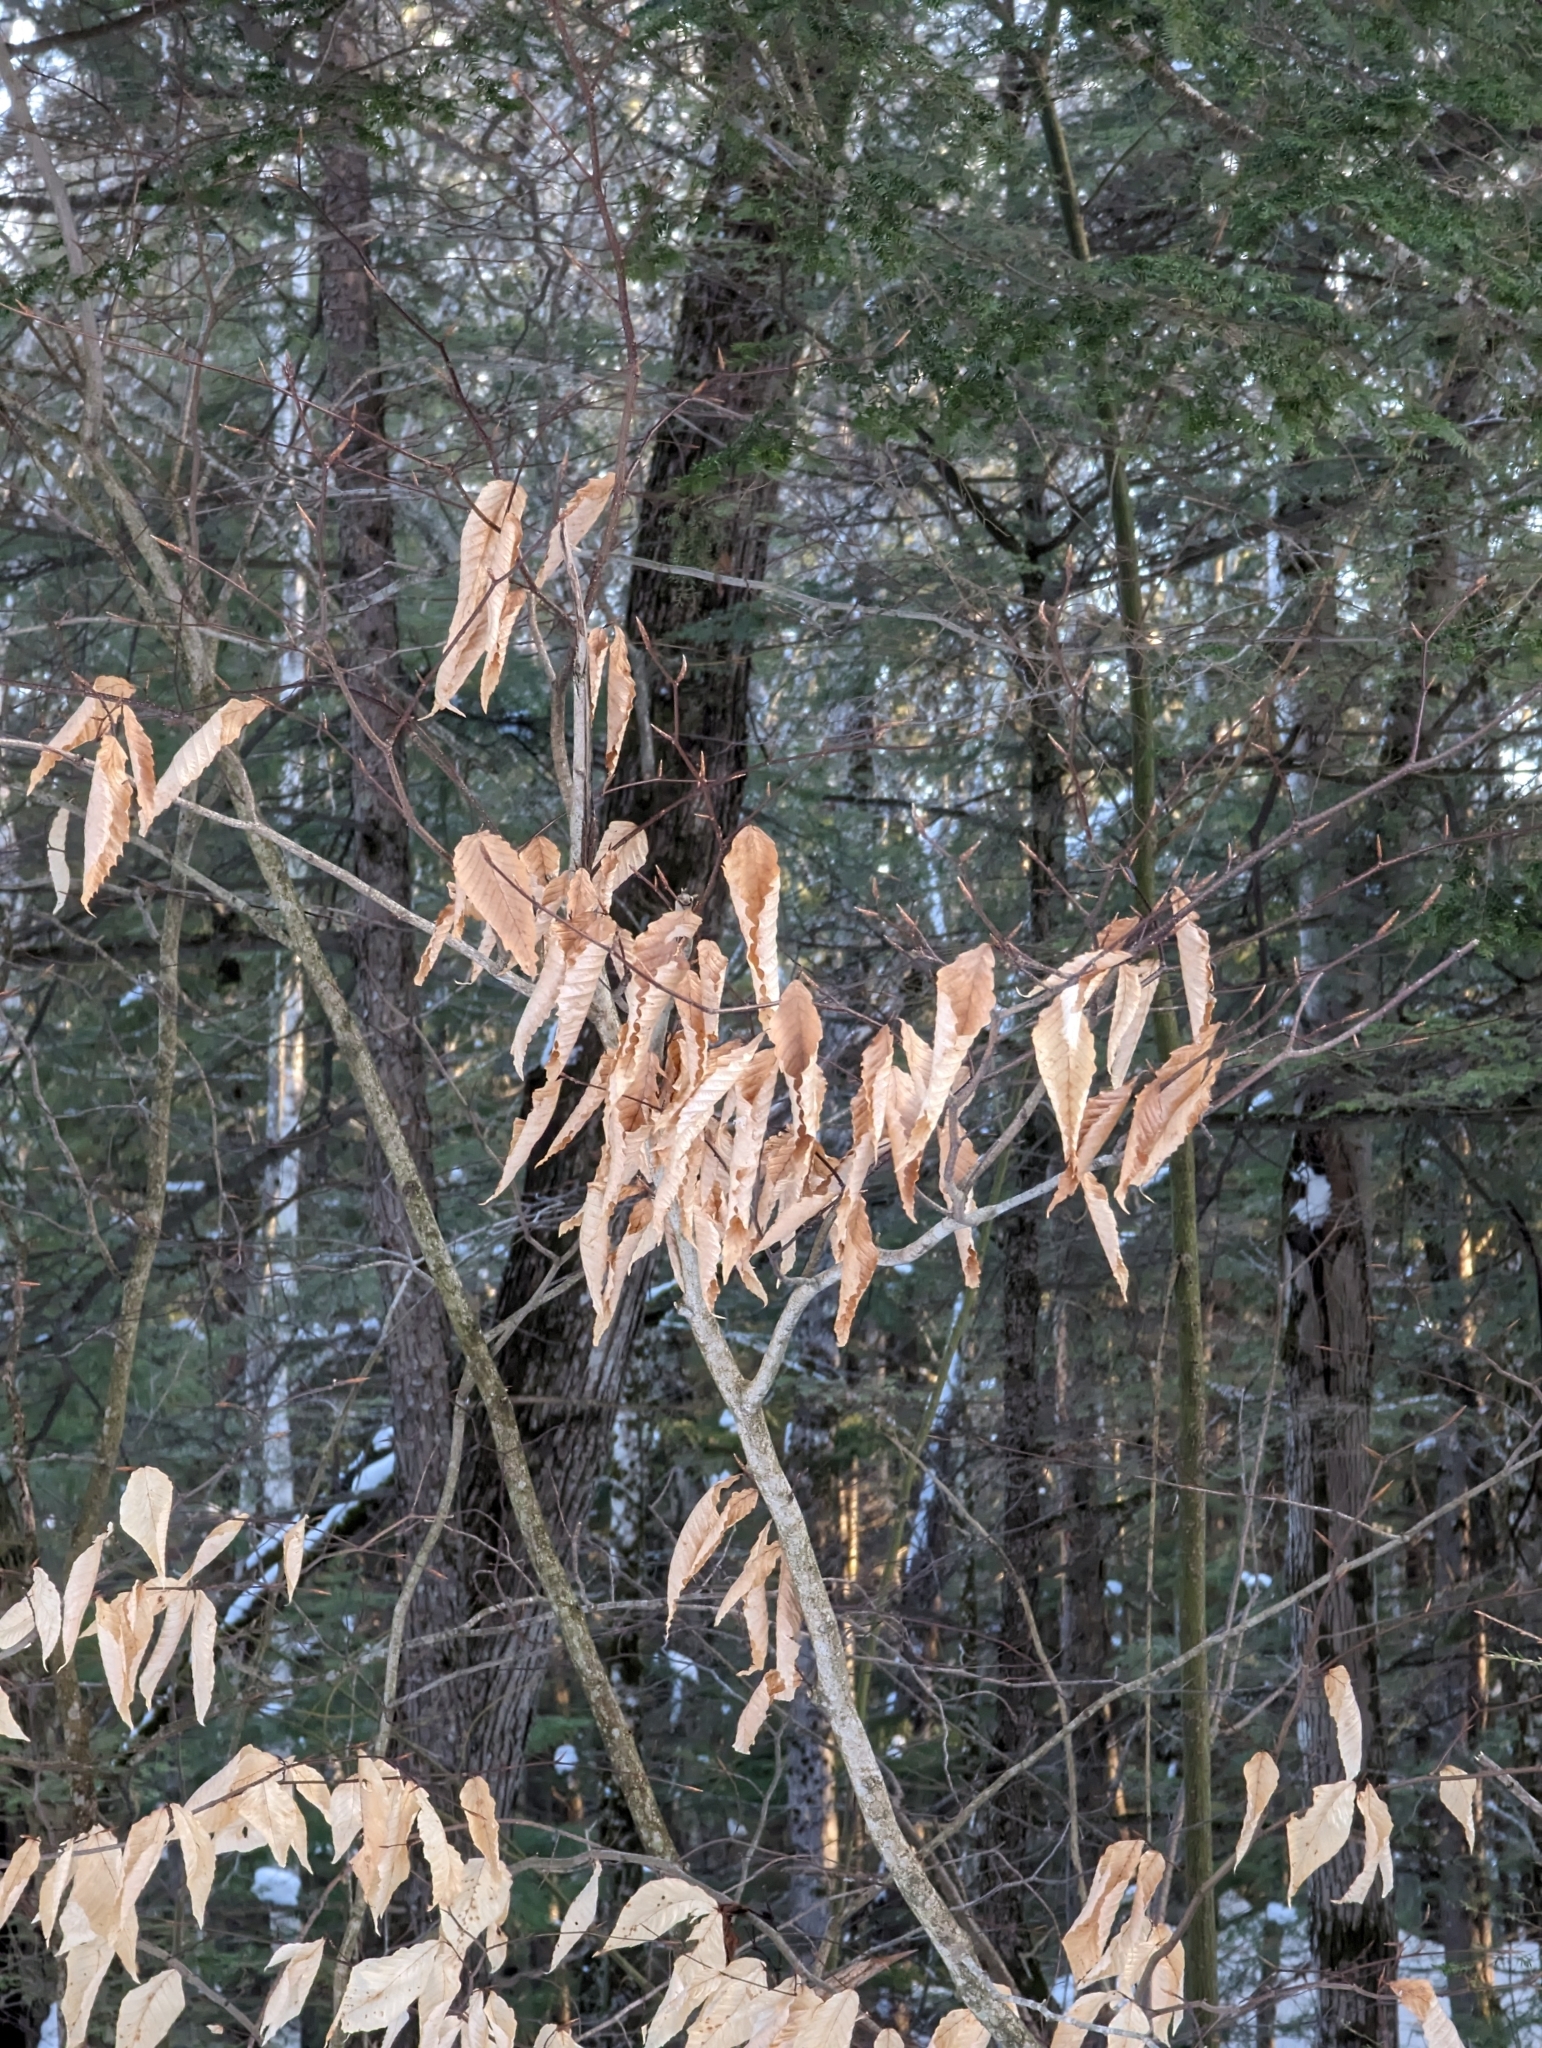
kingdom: Plantae
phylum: Tracheophyta
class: Magnoliopsida
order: Fagales
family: Fagaceae
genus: Fagus
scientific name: Fagus grandifolia
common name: American beech
